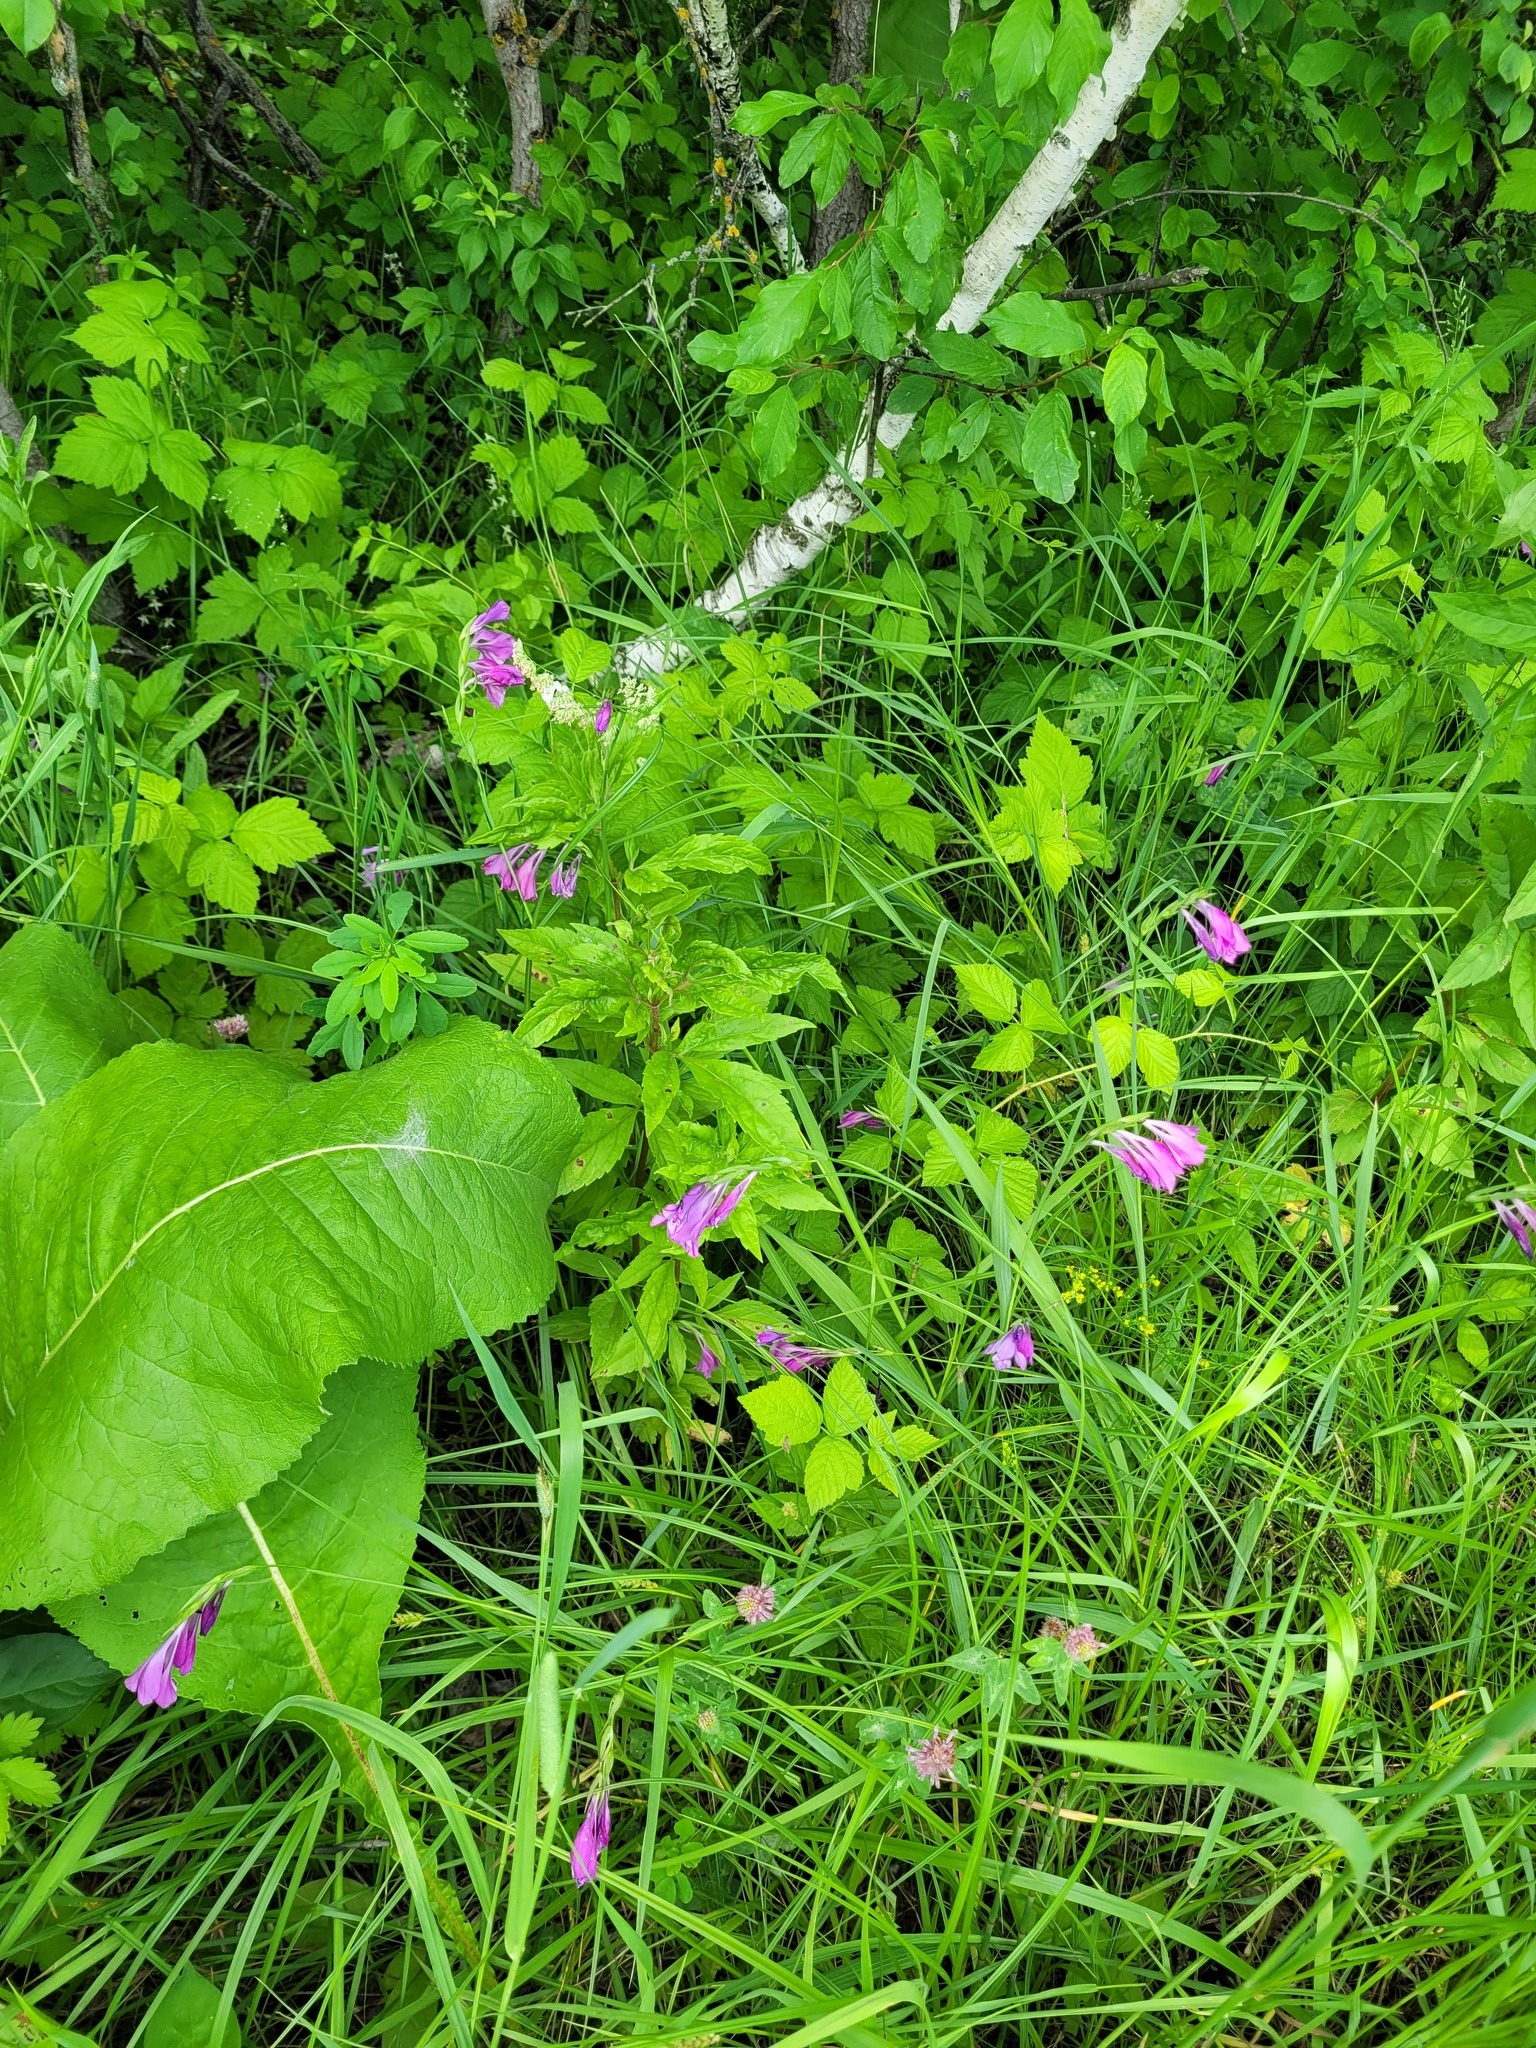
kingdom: Plantae
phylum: Tracheophyta
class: Liliopsida
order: Asparagales
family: Iridaceae
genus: Gladiolus
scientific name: Gladiolus tenuis
